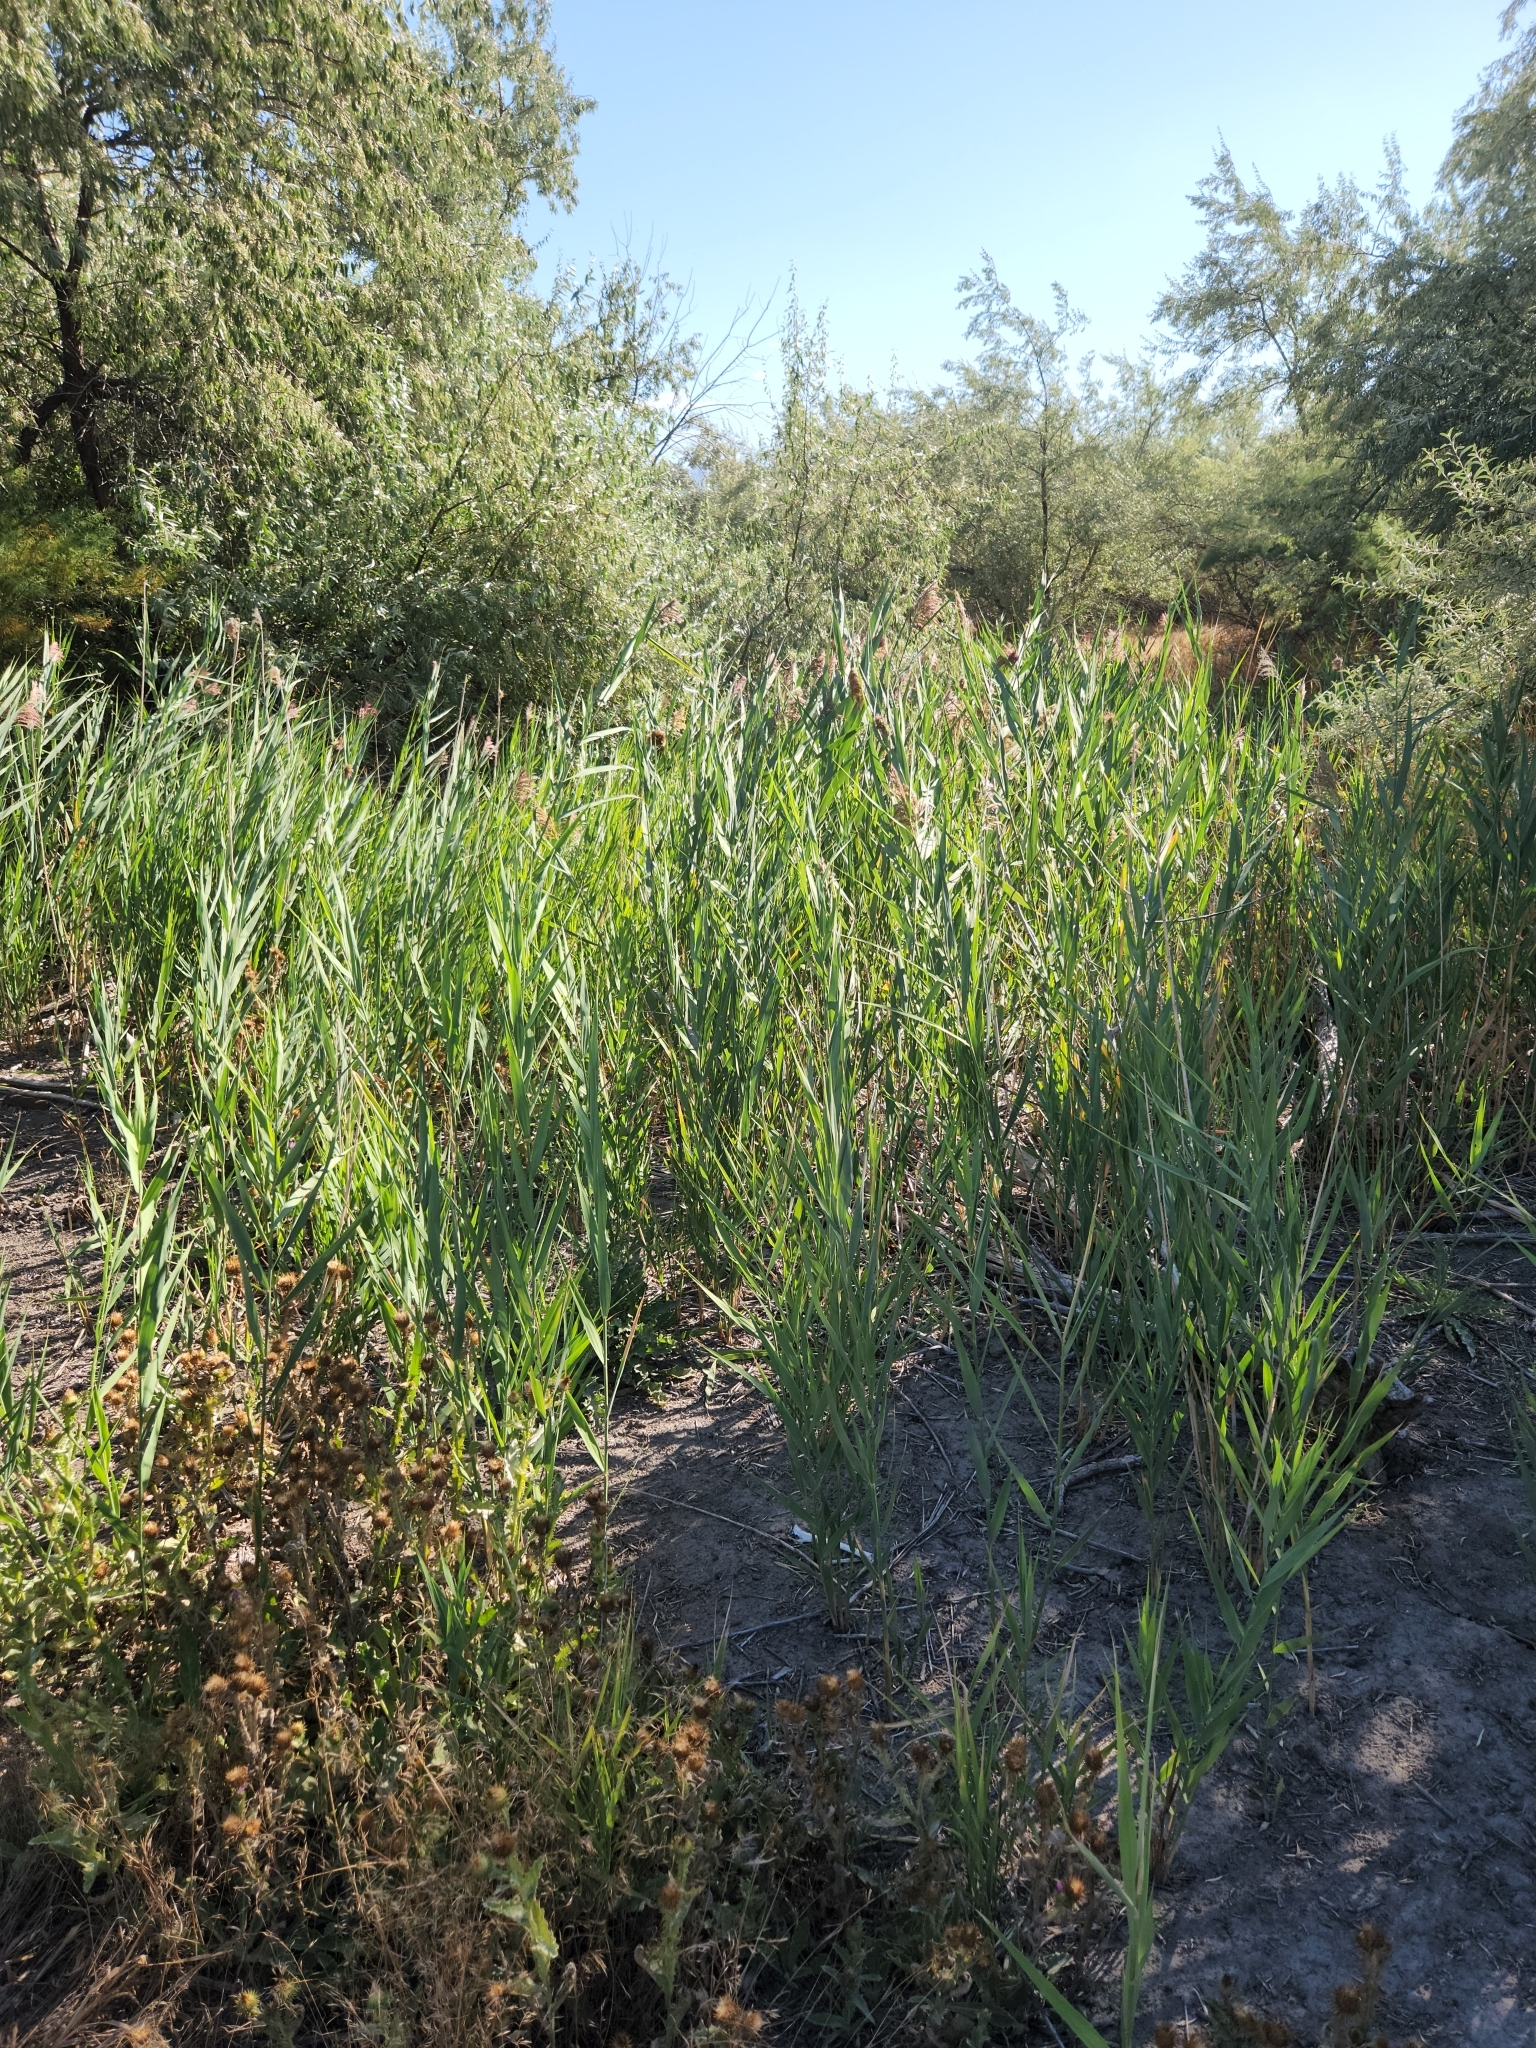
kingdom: Plantae
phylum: Tracheophyta
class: Liliopsida
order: Poales
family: Poaceae
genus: Phragmites
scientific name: Phragmites australis
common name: Common reed
